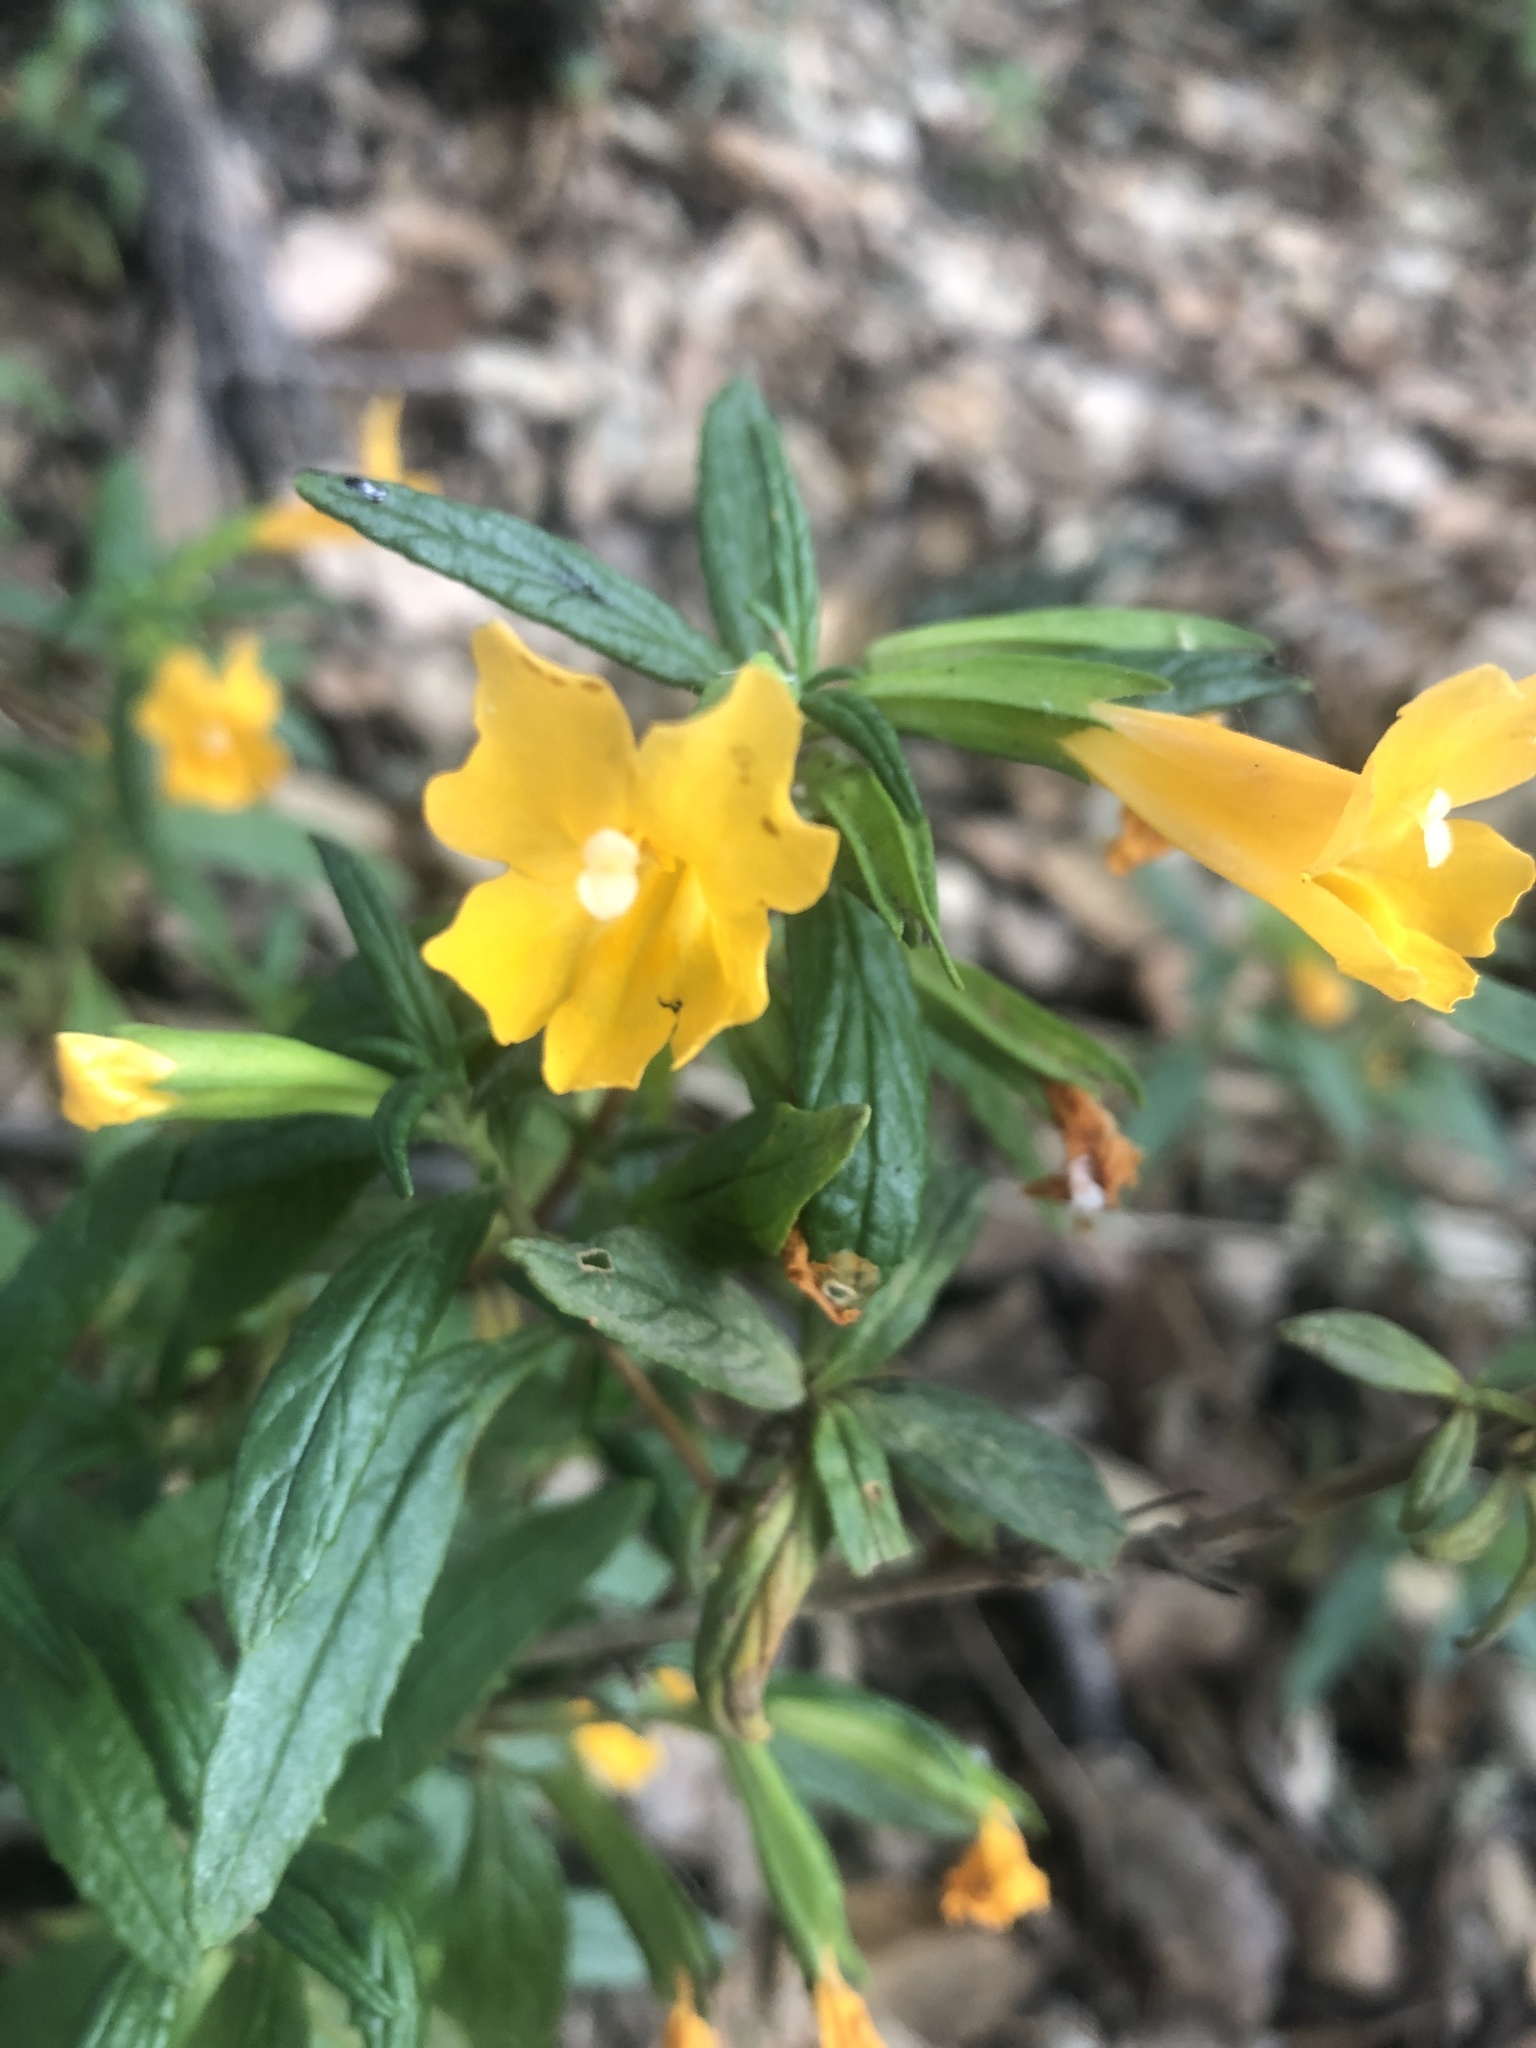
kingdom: Plantae
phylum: Tracheophyta
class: Magnoliopsida
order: Lamiales
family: Phrymaceae
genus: Diplacus
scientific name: Diplacus aurantiacus
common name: Bush monkey-flower
